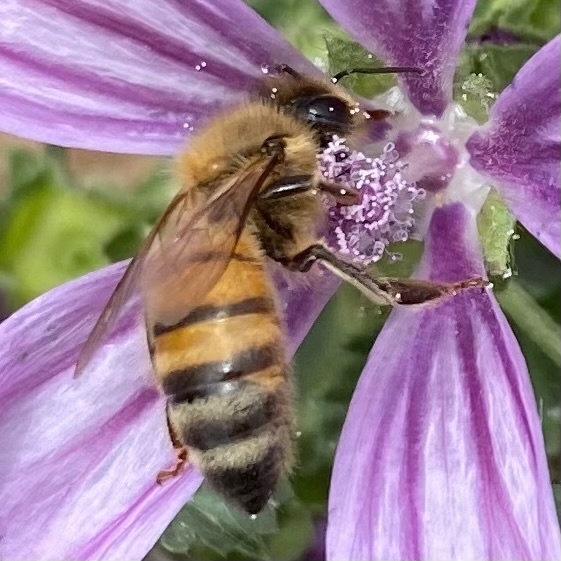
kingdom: Animalia
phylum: Arthropoda
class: Insecta
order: Hymenoptera
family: Apidae
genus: Apis
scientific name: Apis mellifera
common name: Honey bee
